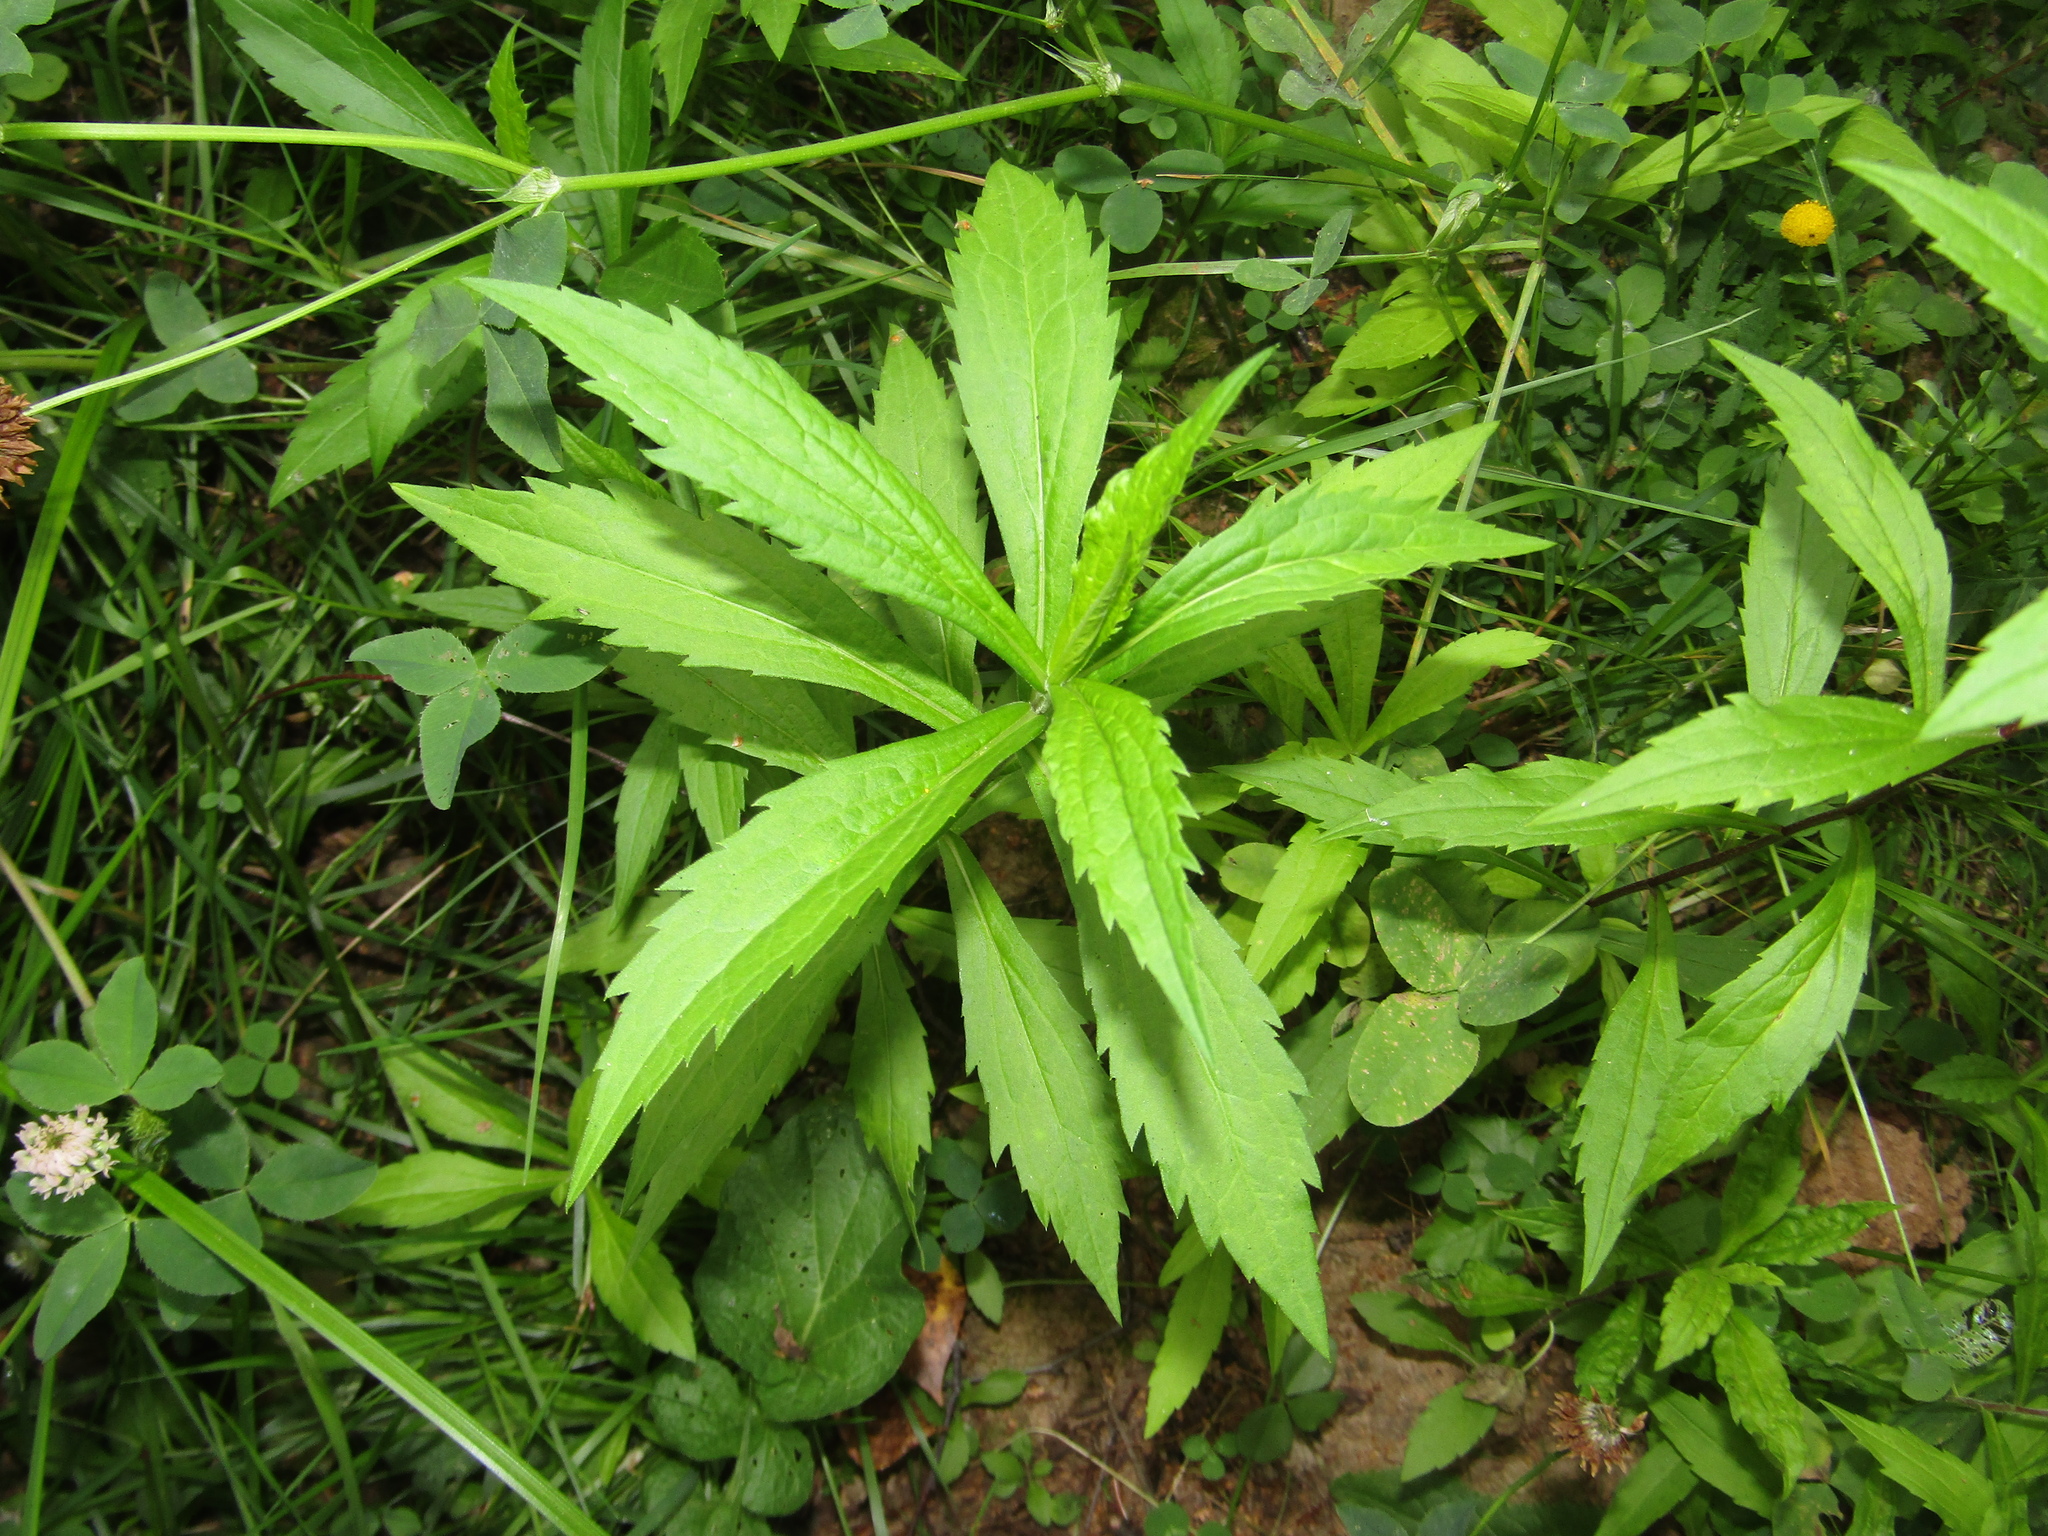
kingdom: Plantae
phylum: Tracheophyta
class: Magnoliopsida
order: Asterales
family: Asteraceae
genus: Solidago
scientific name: Solidago canadensis
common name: Canada goldenrod
